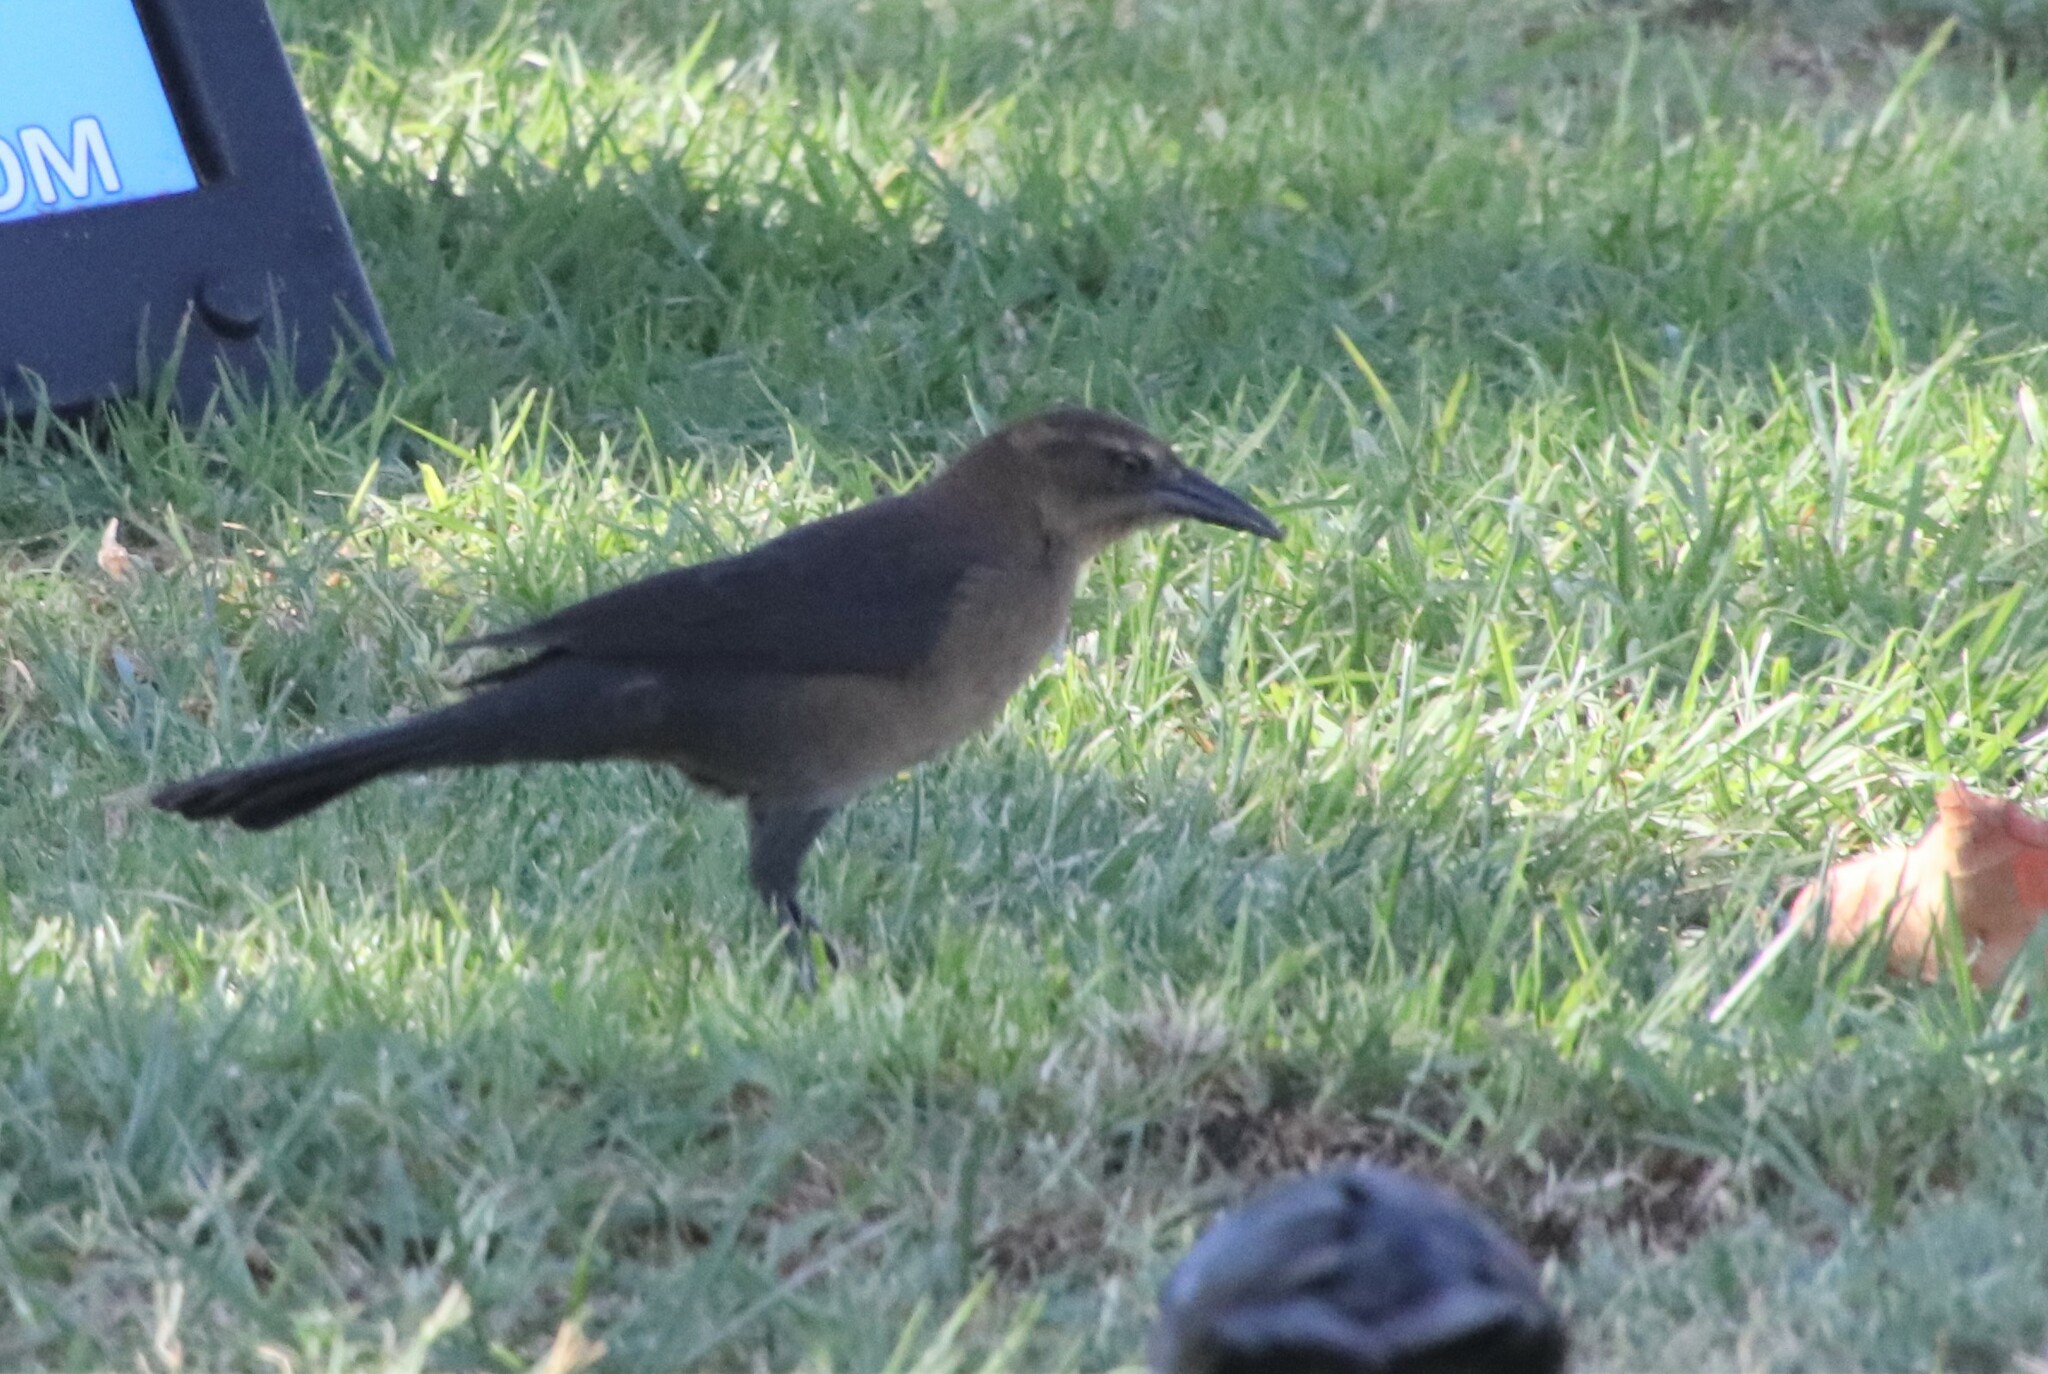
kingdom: Animalia
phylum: Chordata
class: Aves
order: Passeriformes
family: Icteridae
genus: Quiscalus
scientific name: Quiscalus mexicanus
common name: Great-tailed grackle
